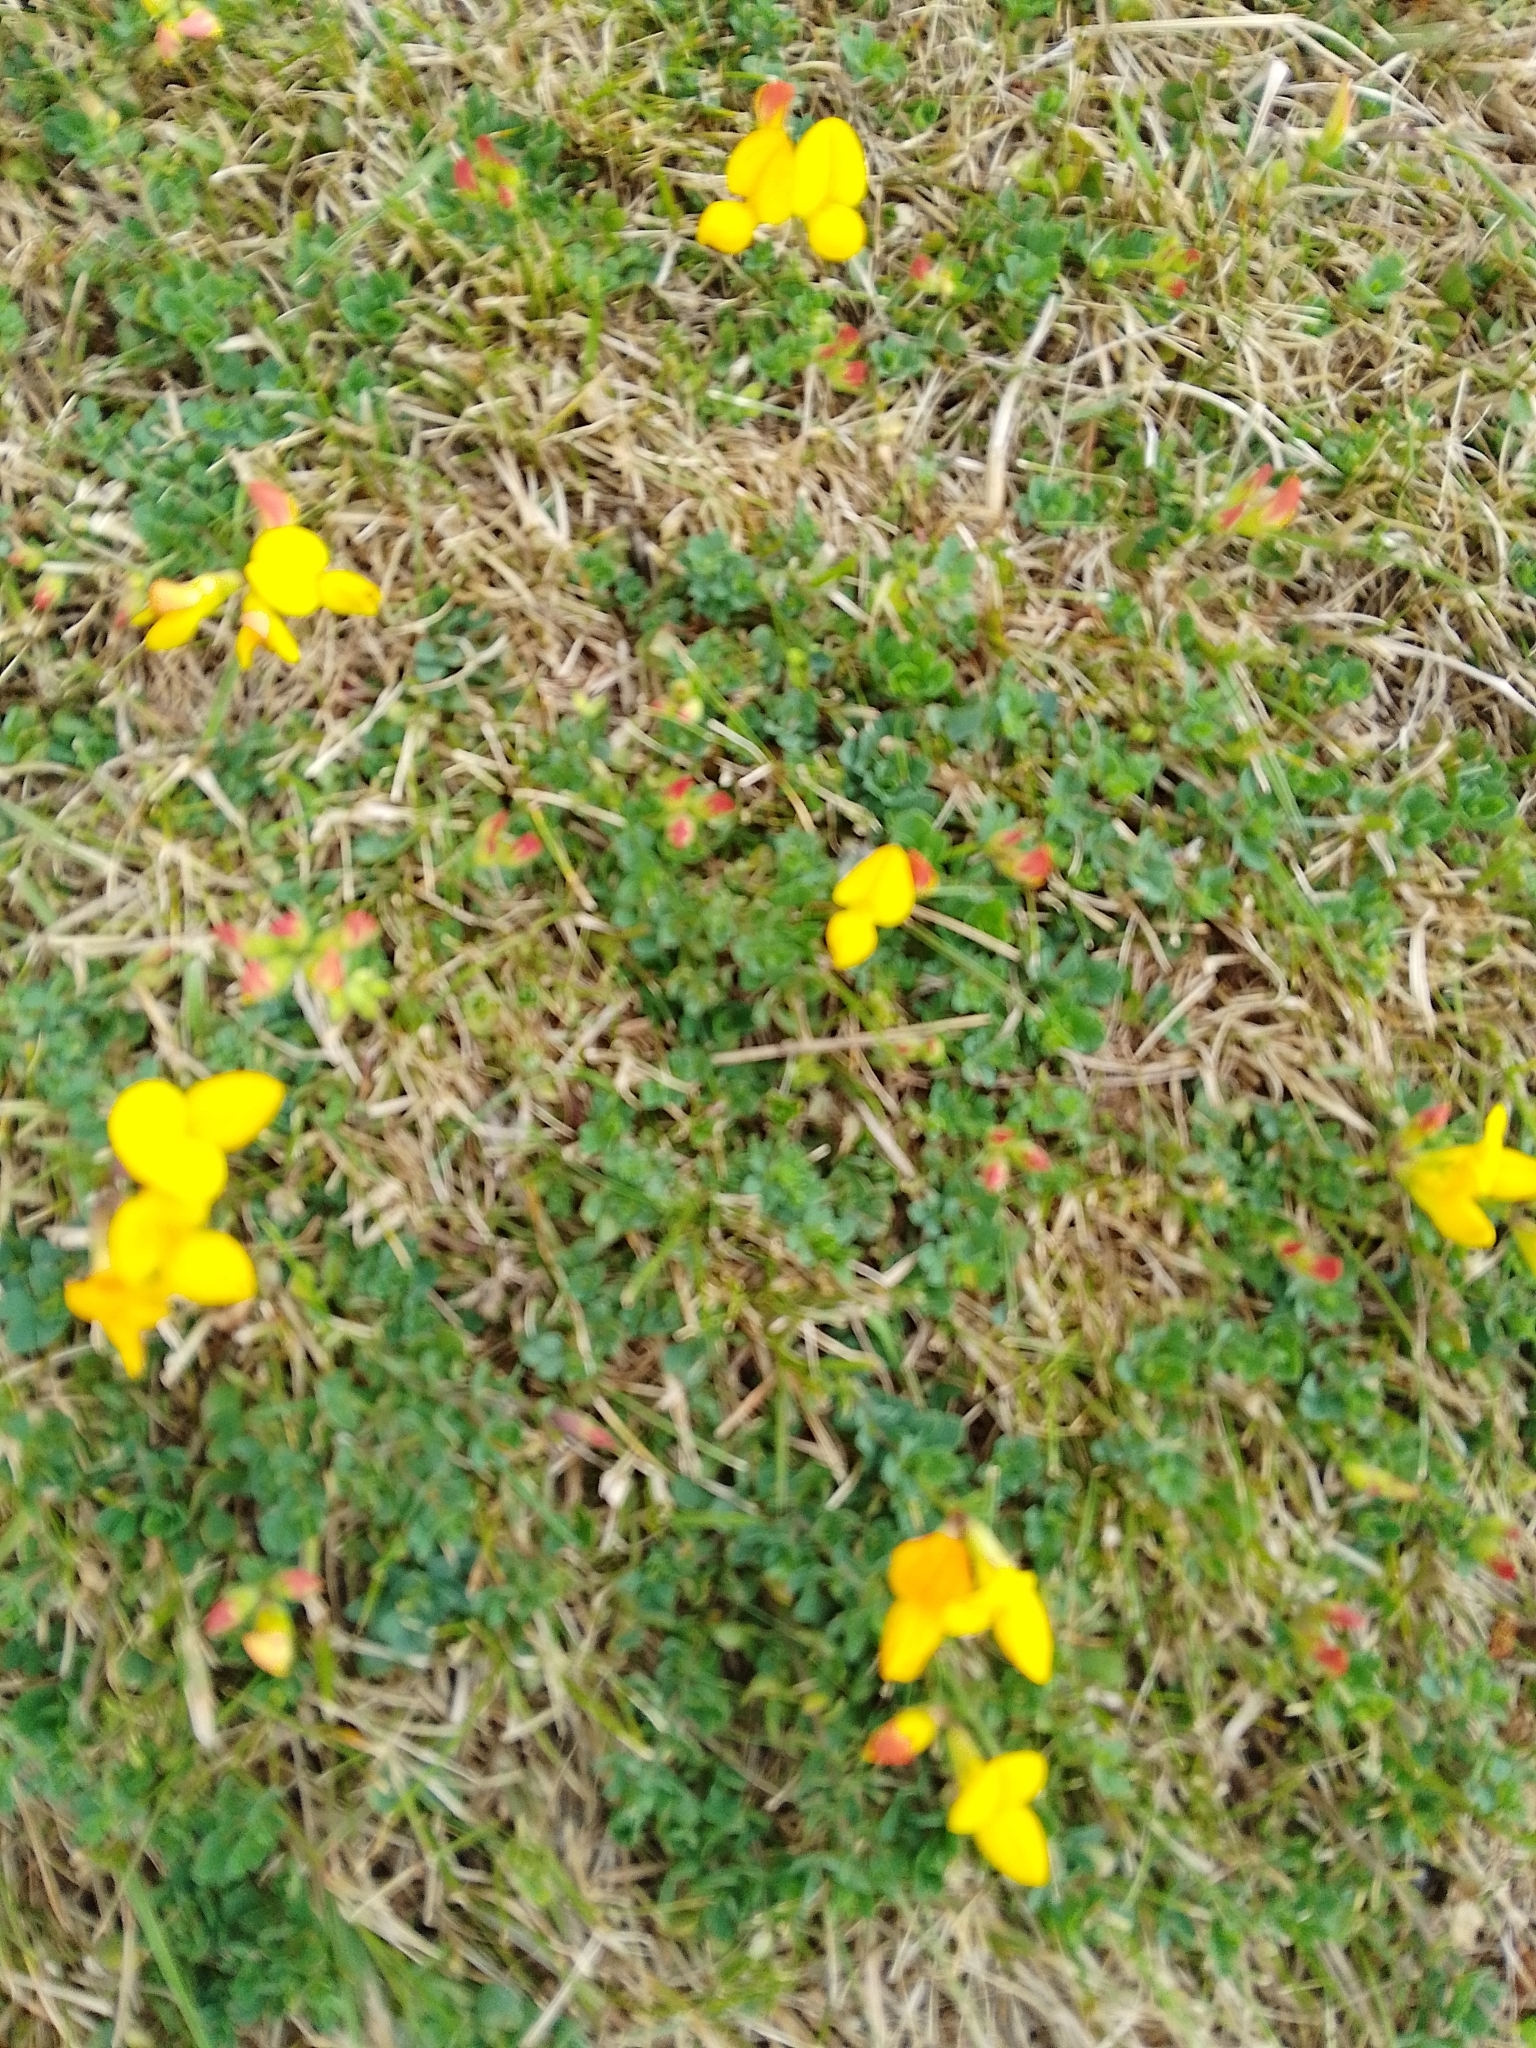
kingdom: Plantae
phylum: Tracheophyta
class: Magnoliopsida
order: Fabales
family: Fabaceae
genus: Lotus
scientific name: Lotus corniculatus
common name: Common bird's-foot-trefoil
